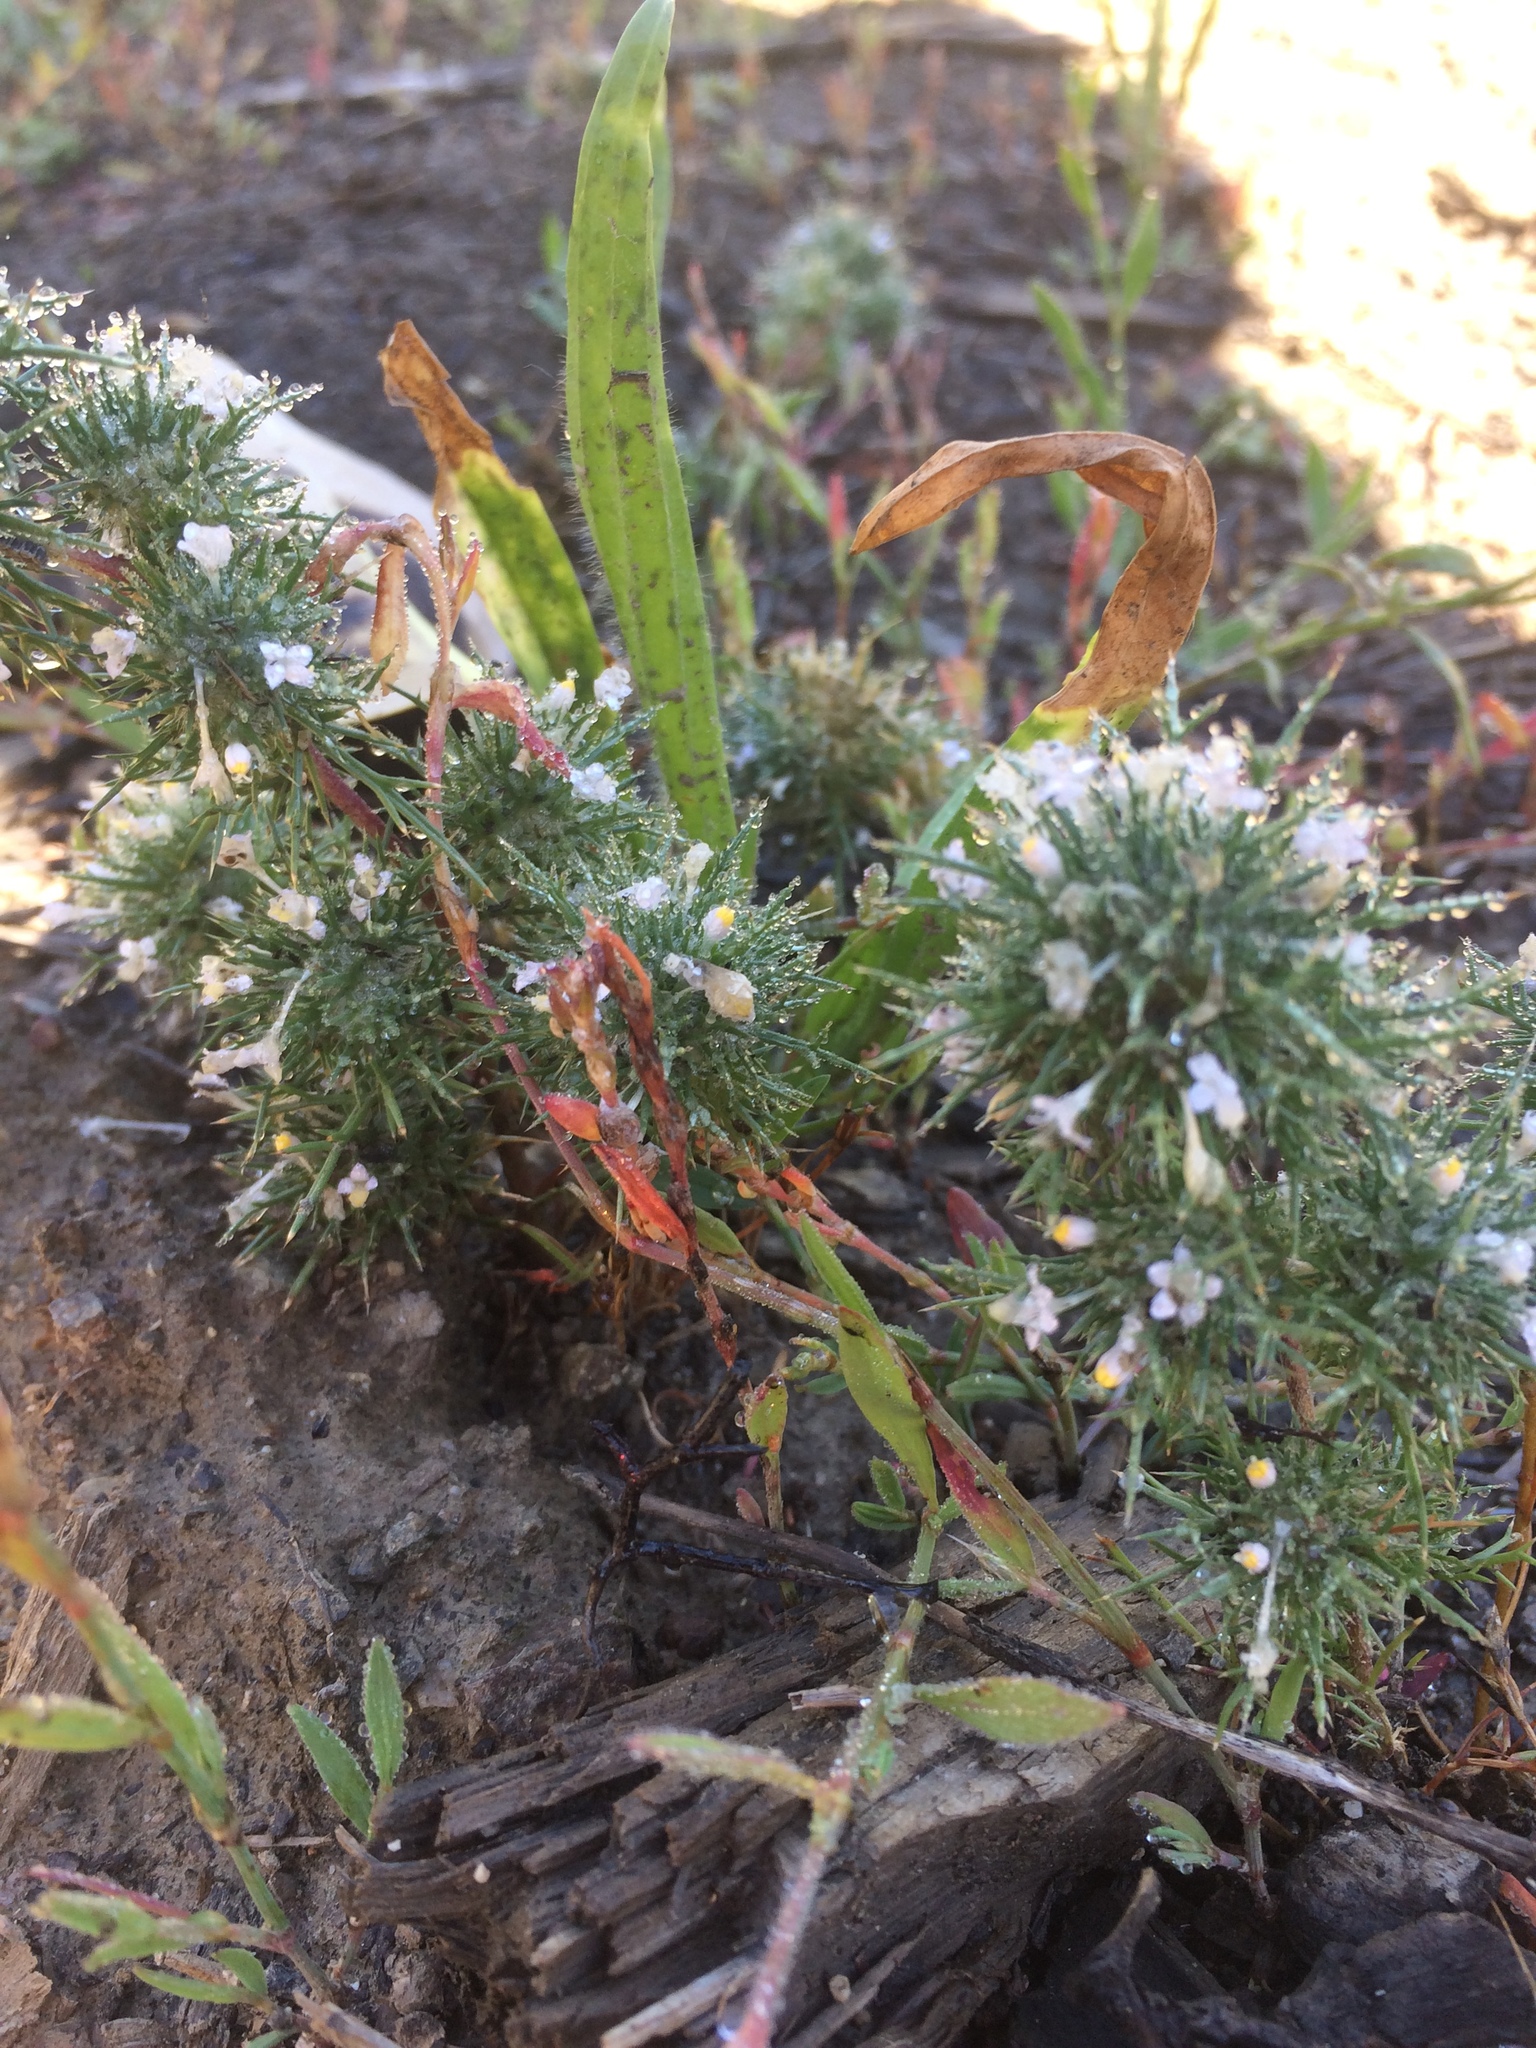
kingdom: Plantae
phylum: Tracheophyta
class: Magnoliopsida
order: Ericales
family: Polemoniaceae
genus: Navarretia
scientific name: Navarretia intertexta
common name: Needle-leaved navarretia
